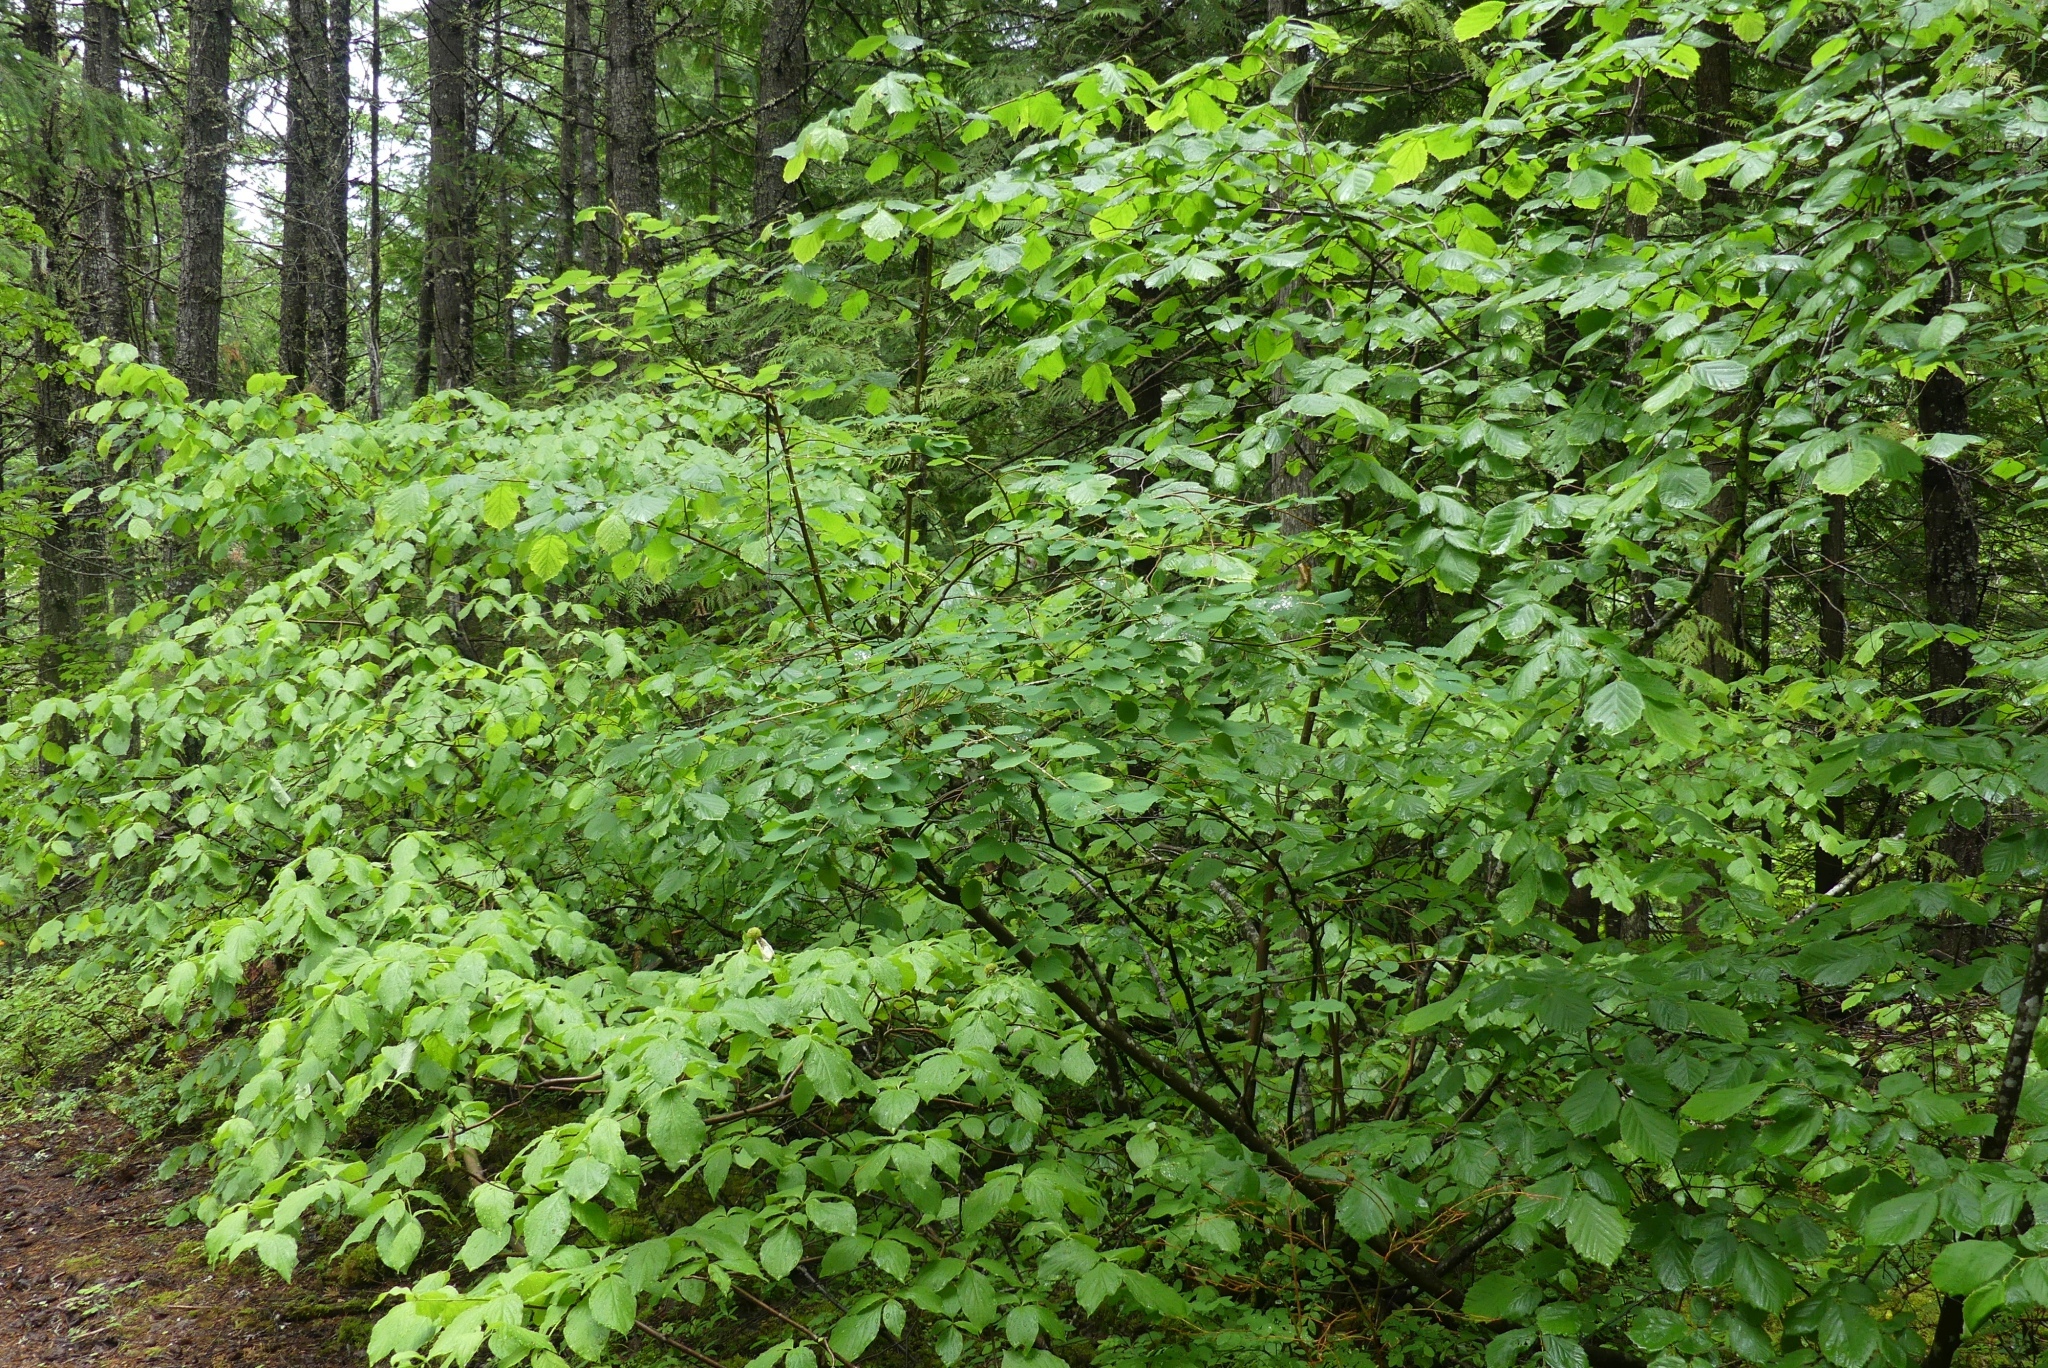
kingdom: Plantae
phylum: Tracheophyta
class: Magnoliopsida
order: Rosales
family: Rosaceae
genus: Amelanchier
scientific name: Amelanchier alnifolia
